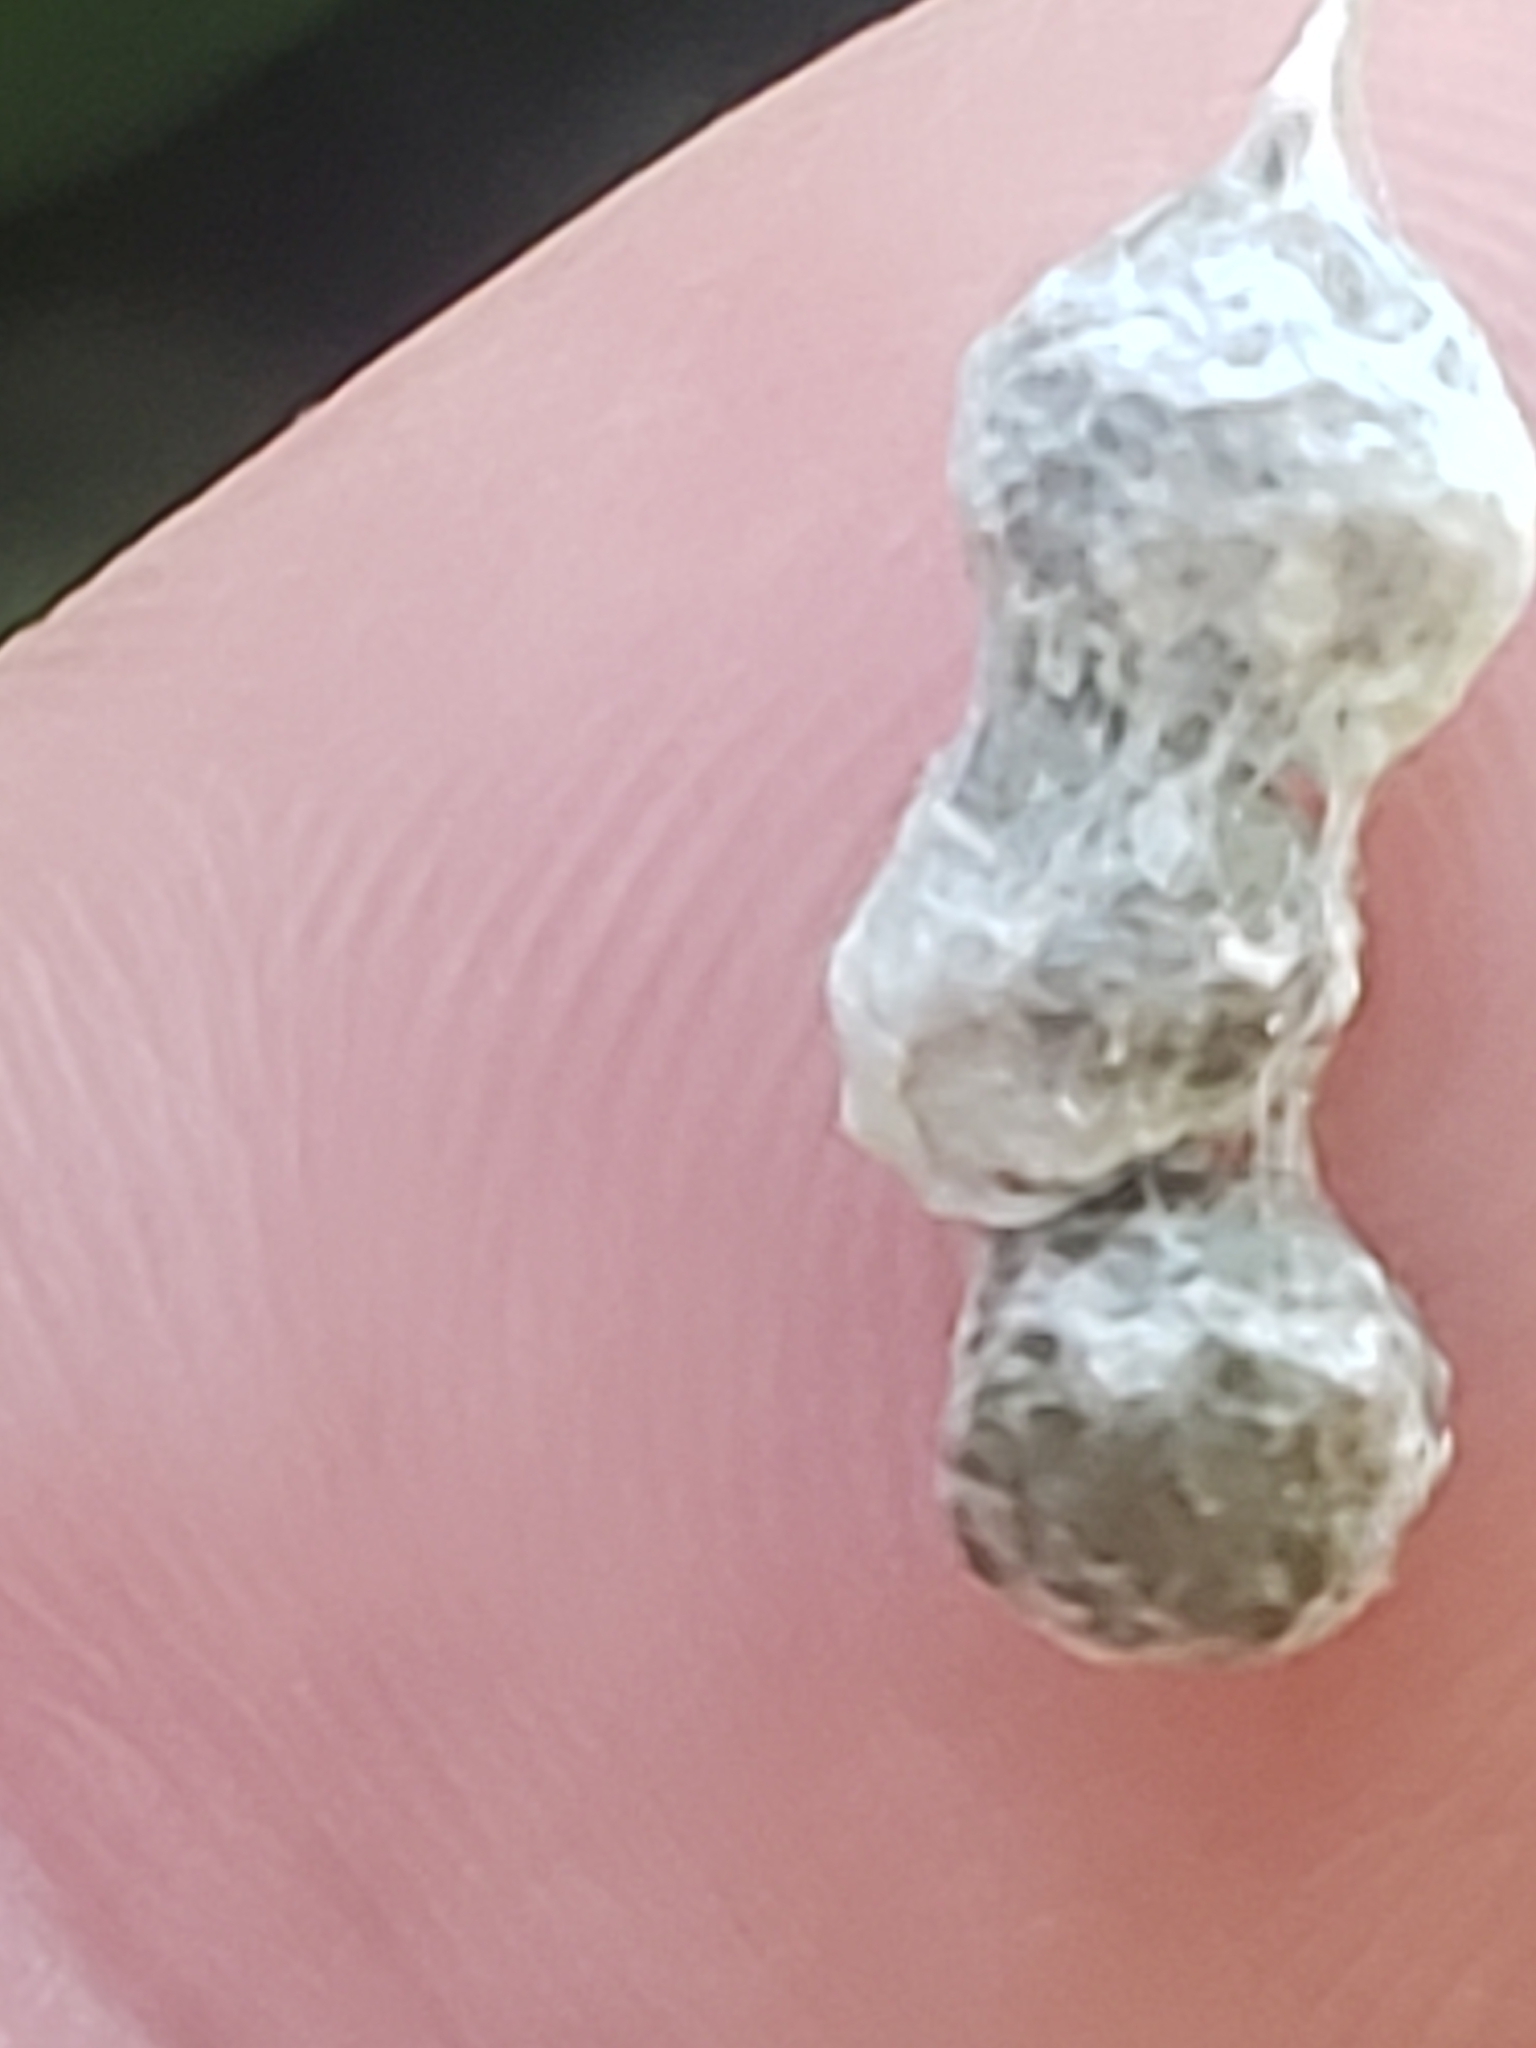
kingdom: Animalia
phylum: Arthropoda
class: Arachnida
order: Araneae
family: Araneidae
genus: Mecynogea
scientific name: Mecynogea lemniscata
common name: Orb weavers
